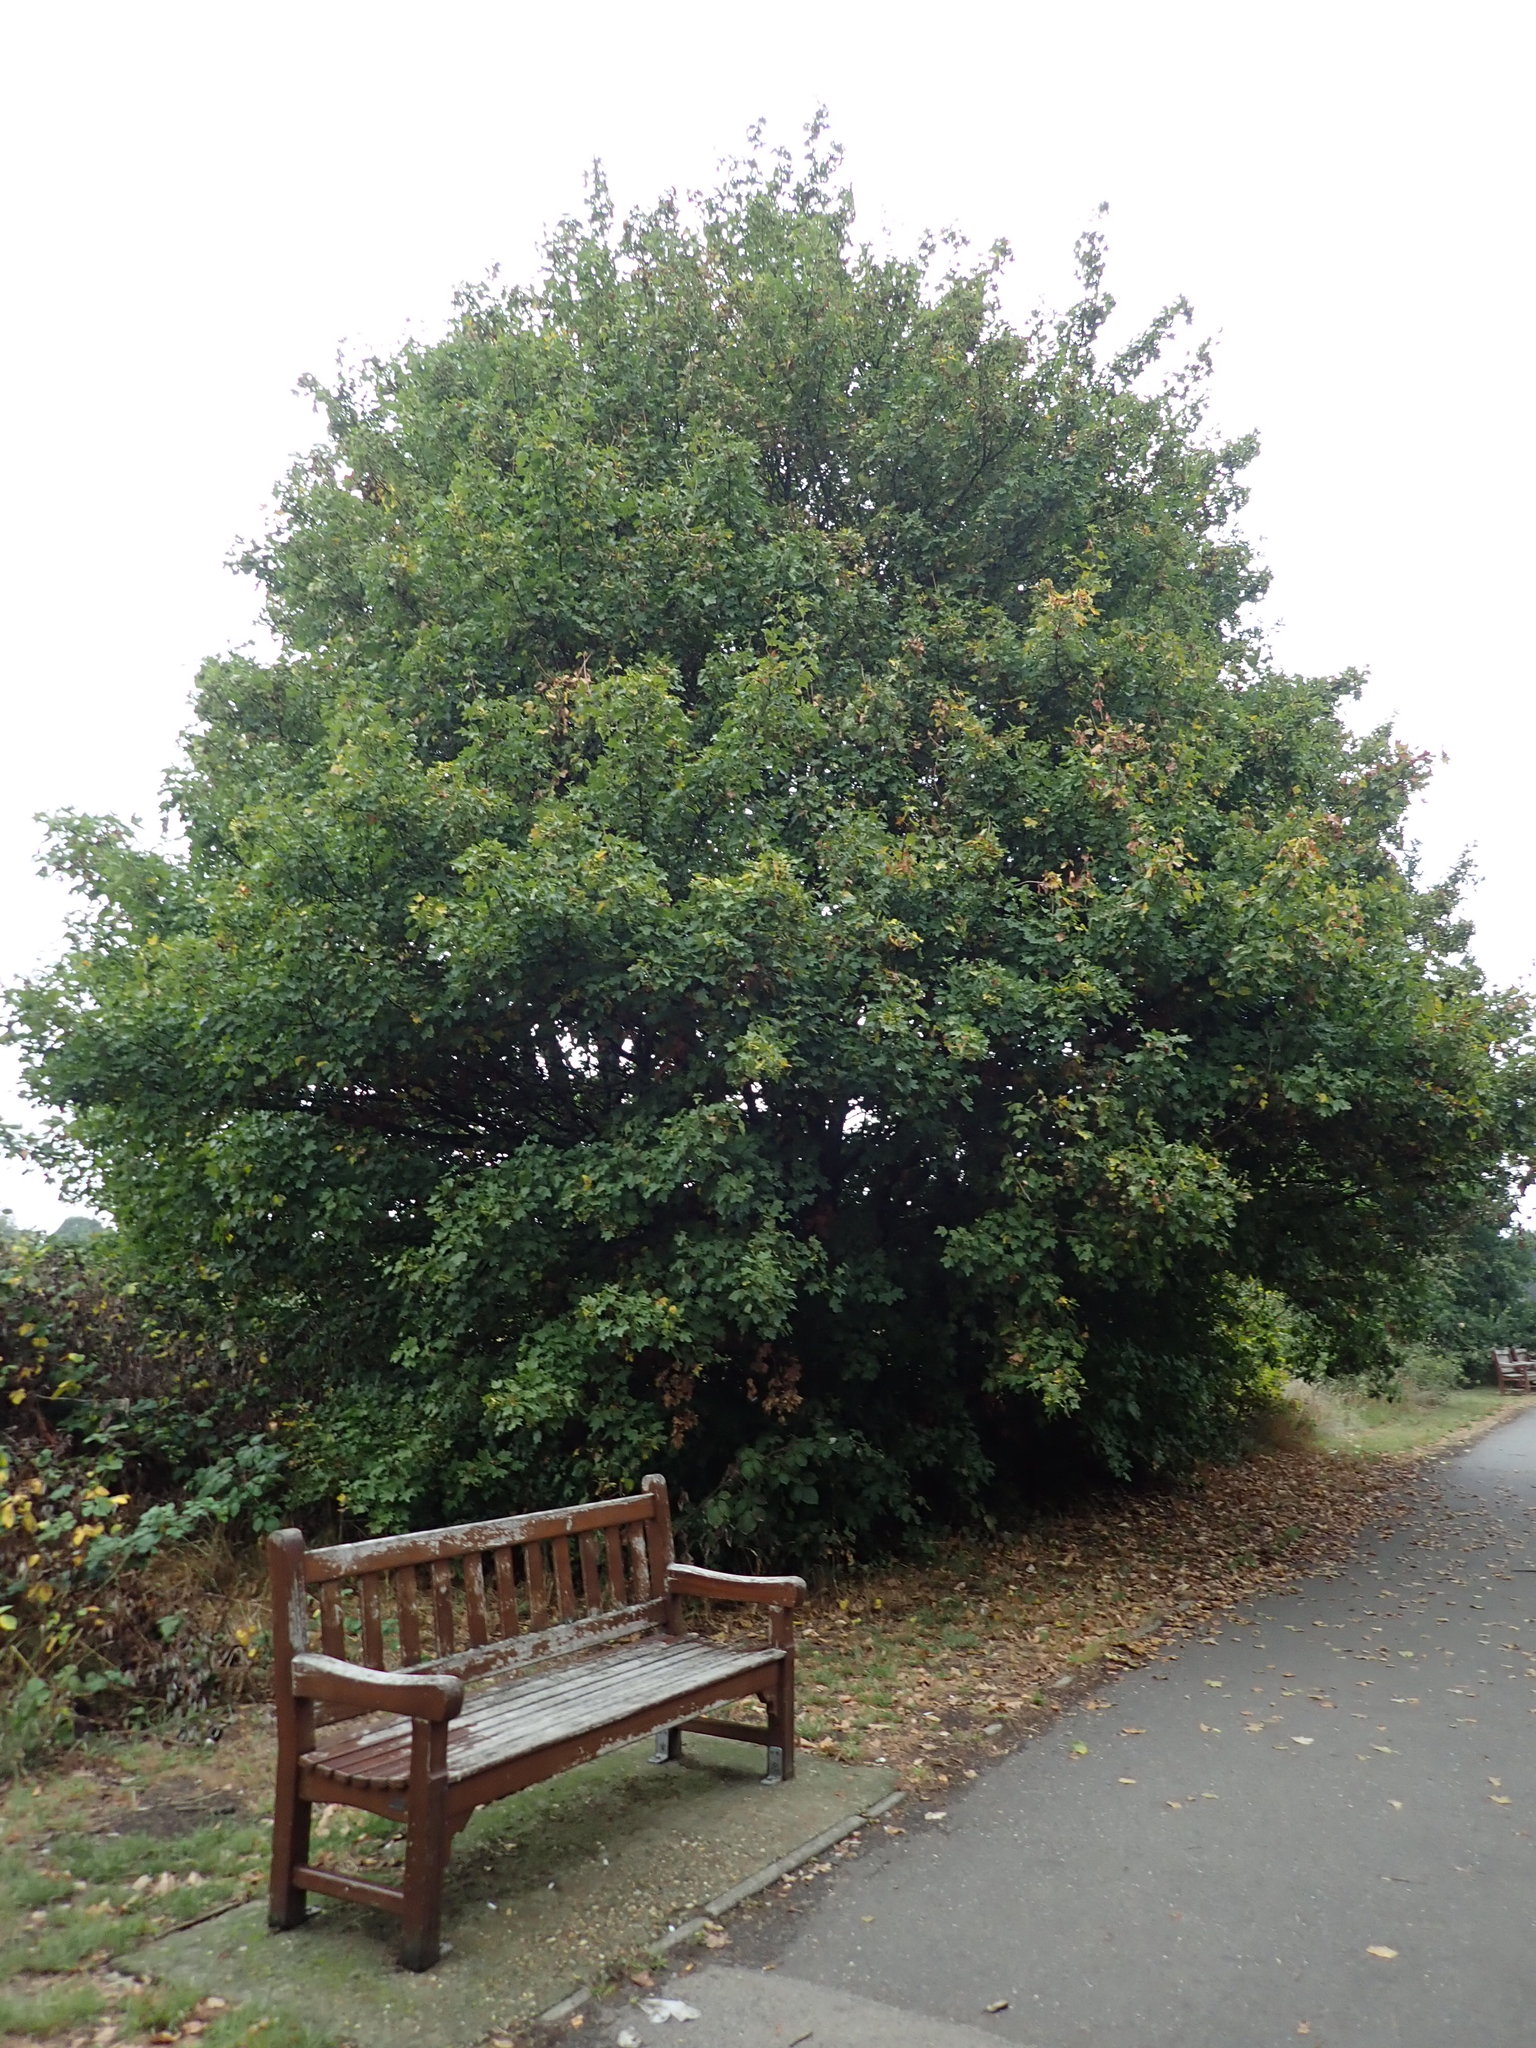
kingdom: Plantae
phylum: Tracheophyta
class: Magnoliopsida
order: Sapindales
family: Sapindaceae
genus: Acer
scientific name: Acer campestre
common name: Field maple
